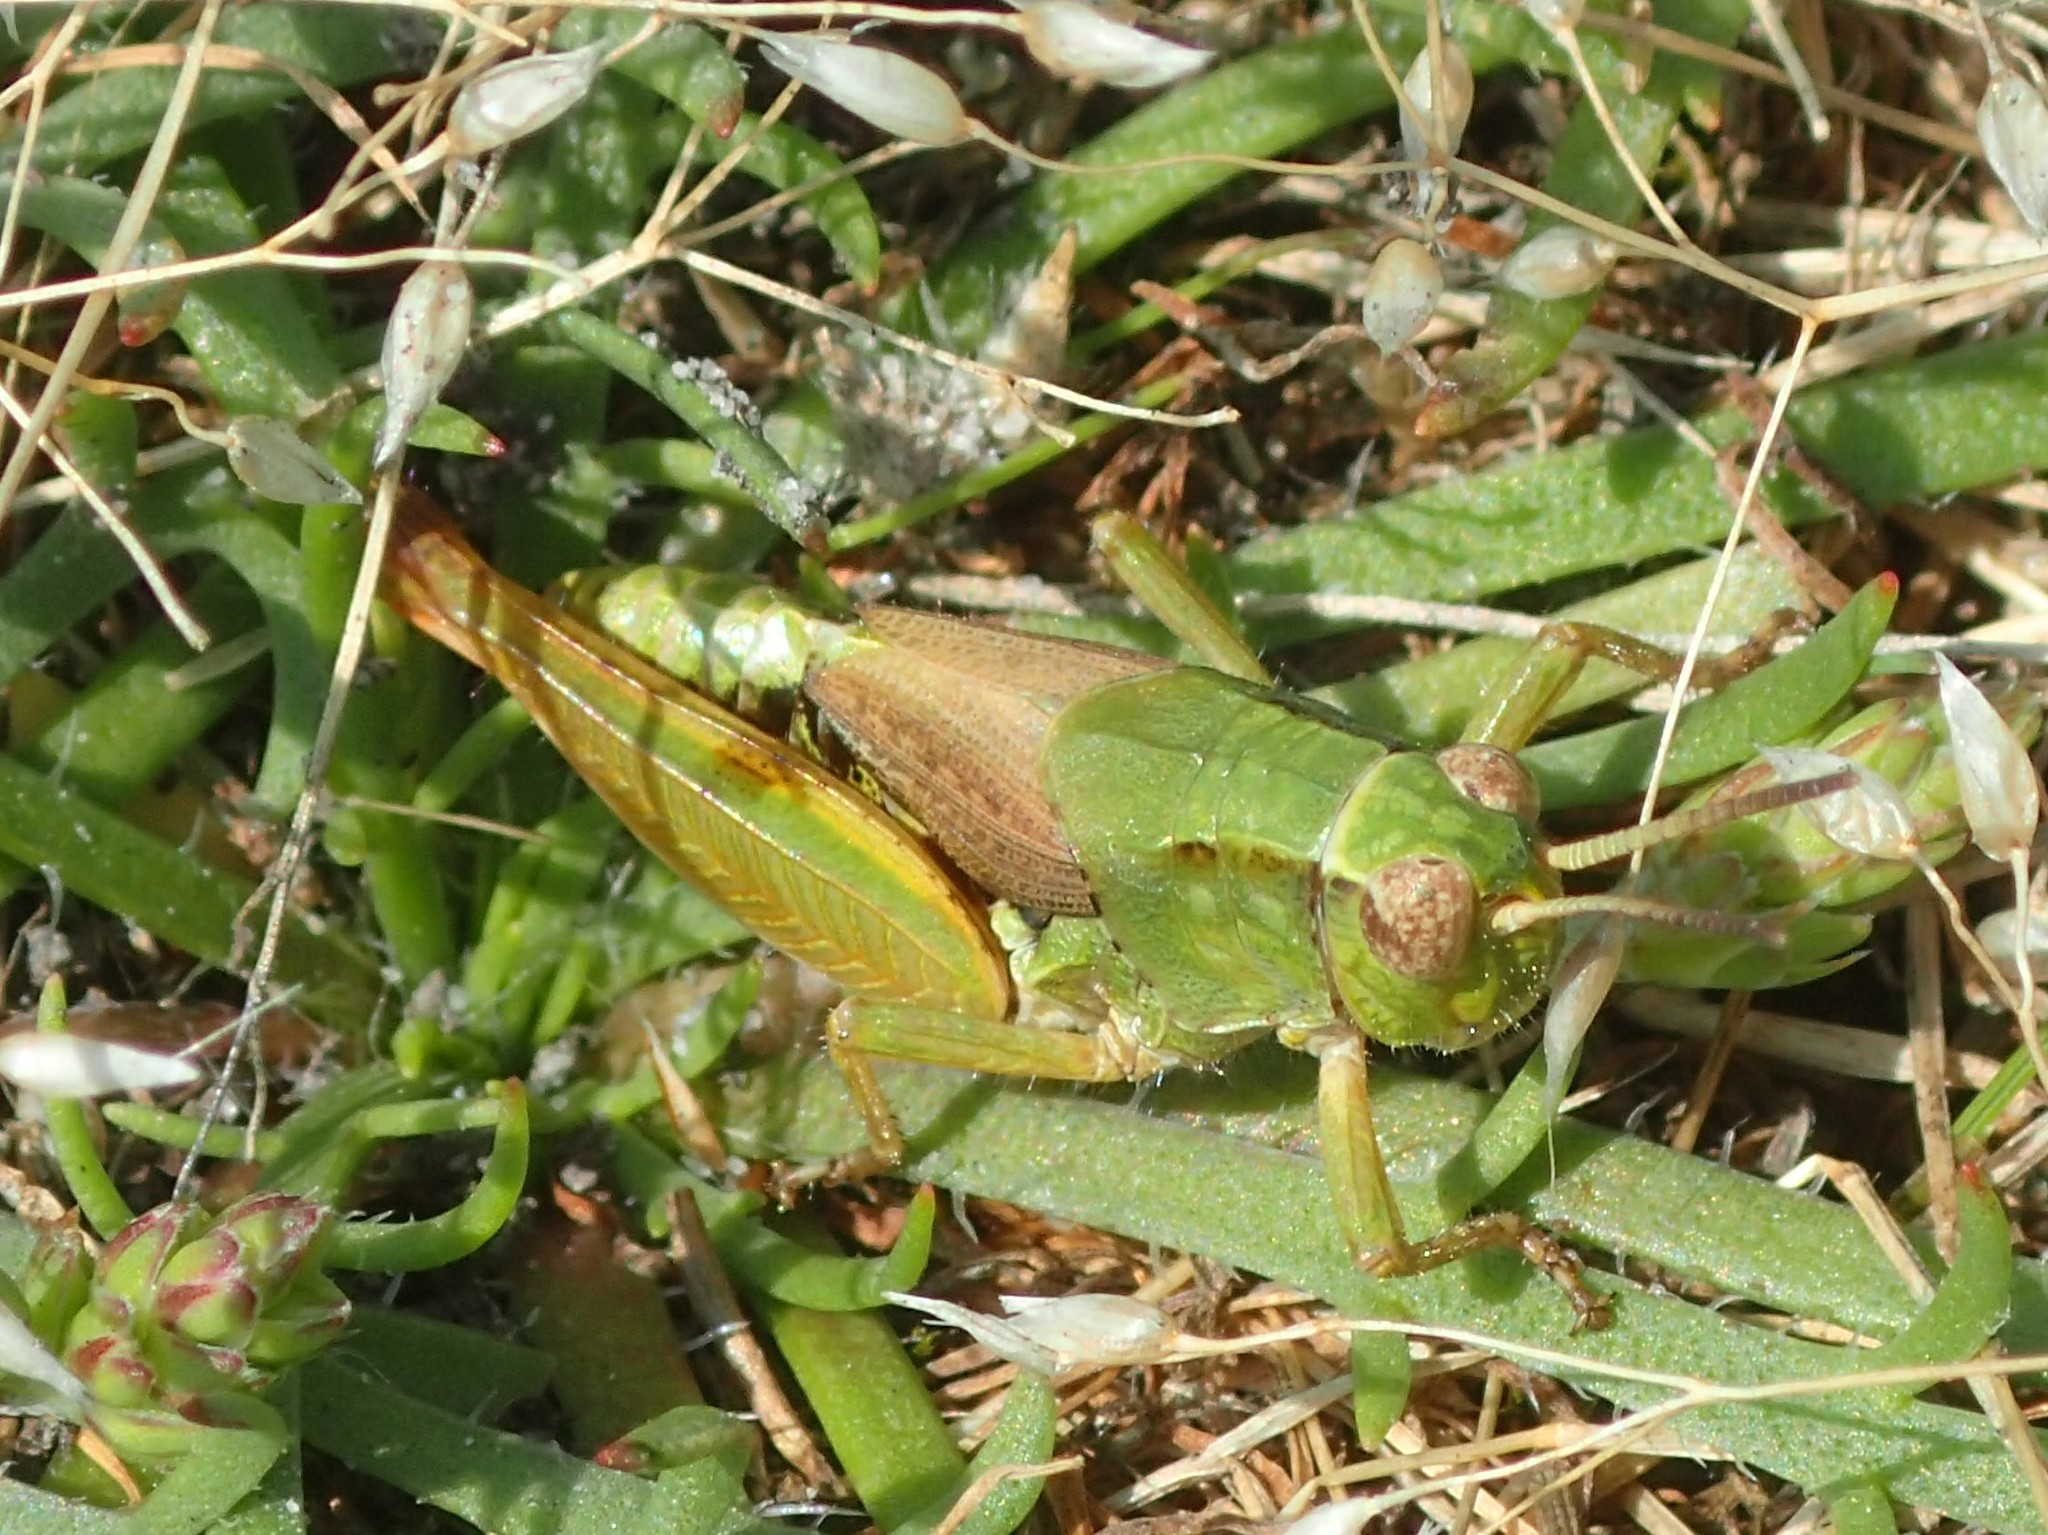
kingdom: Animalia
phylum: Arthropoda
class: Insecta
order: Orthoptera
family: Acrididae
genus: Phaulacridium
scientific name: Phaulacridium vittatum
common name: Wingless grasshopper
